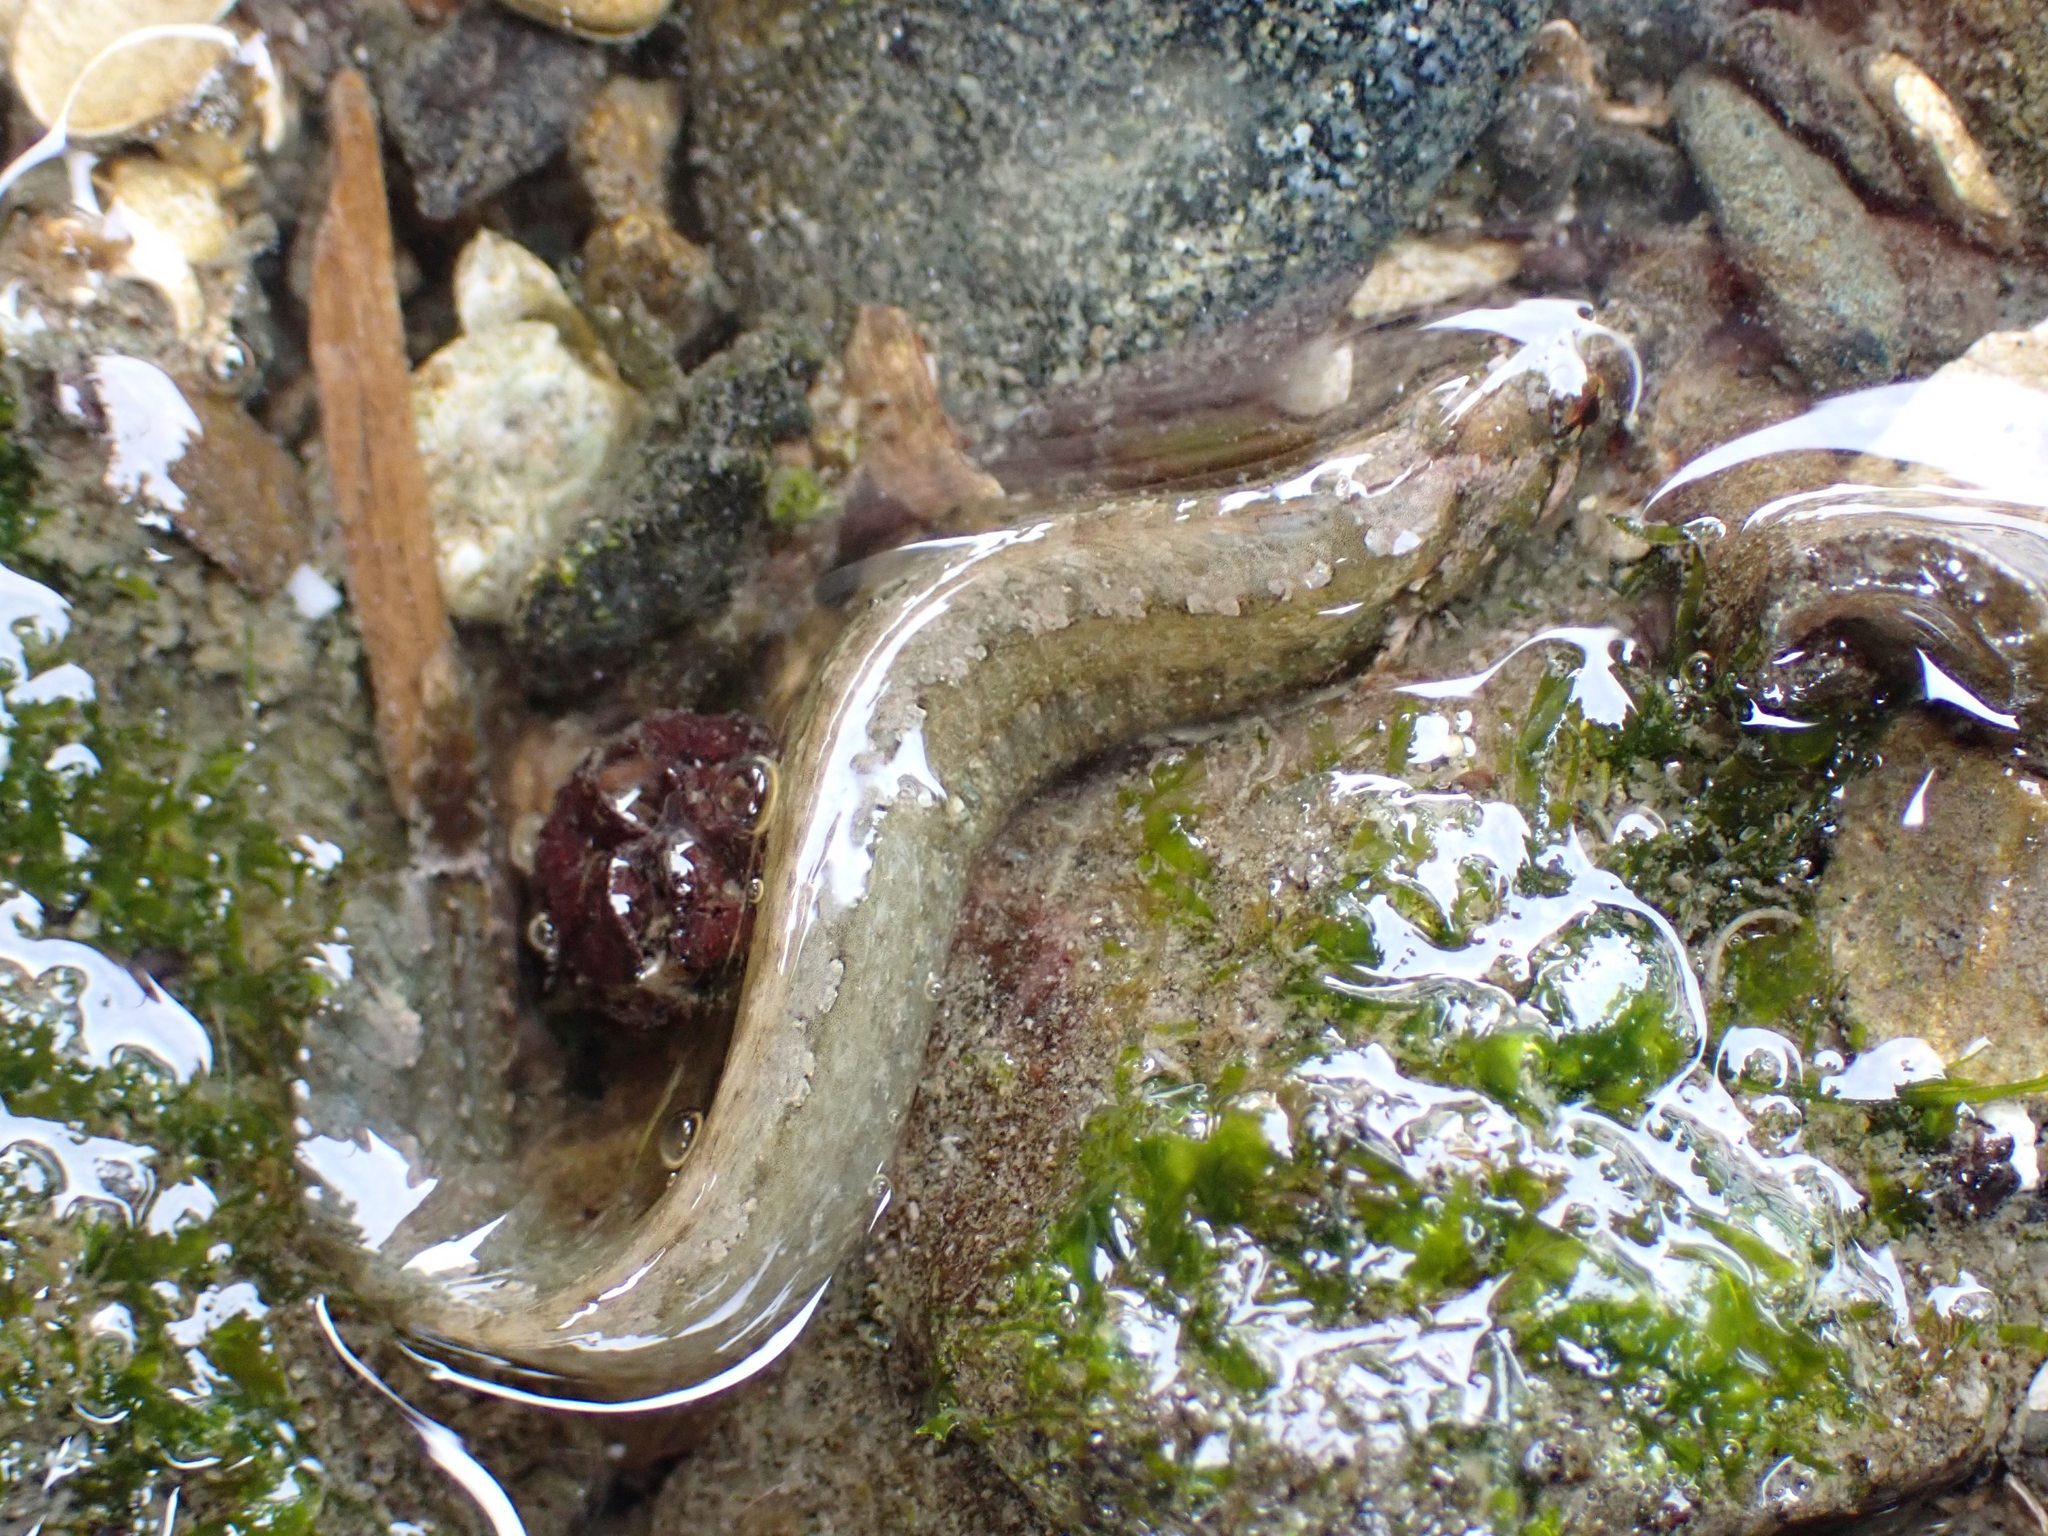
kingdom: Animalia
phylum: Chordata
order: Perciformes
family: Stichaeidae
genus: Anoplarchus
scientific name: Anoplarchus purpurescens
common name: High cockscomb
